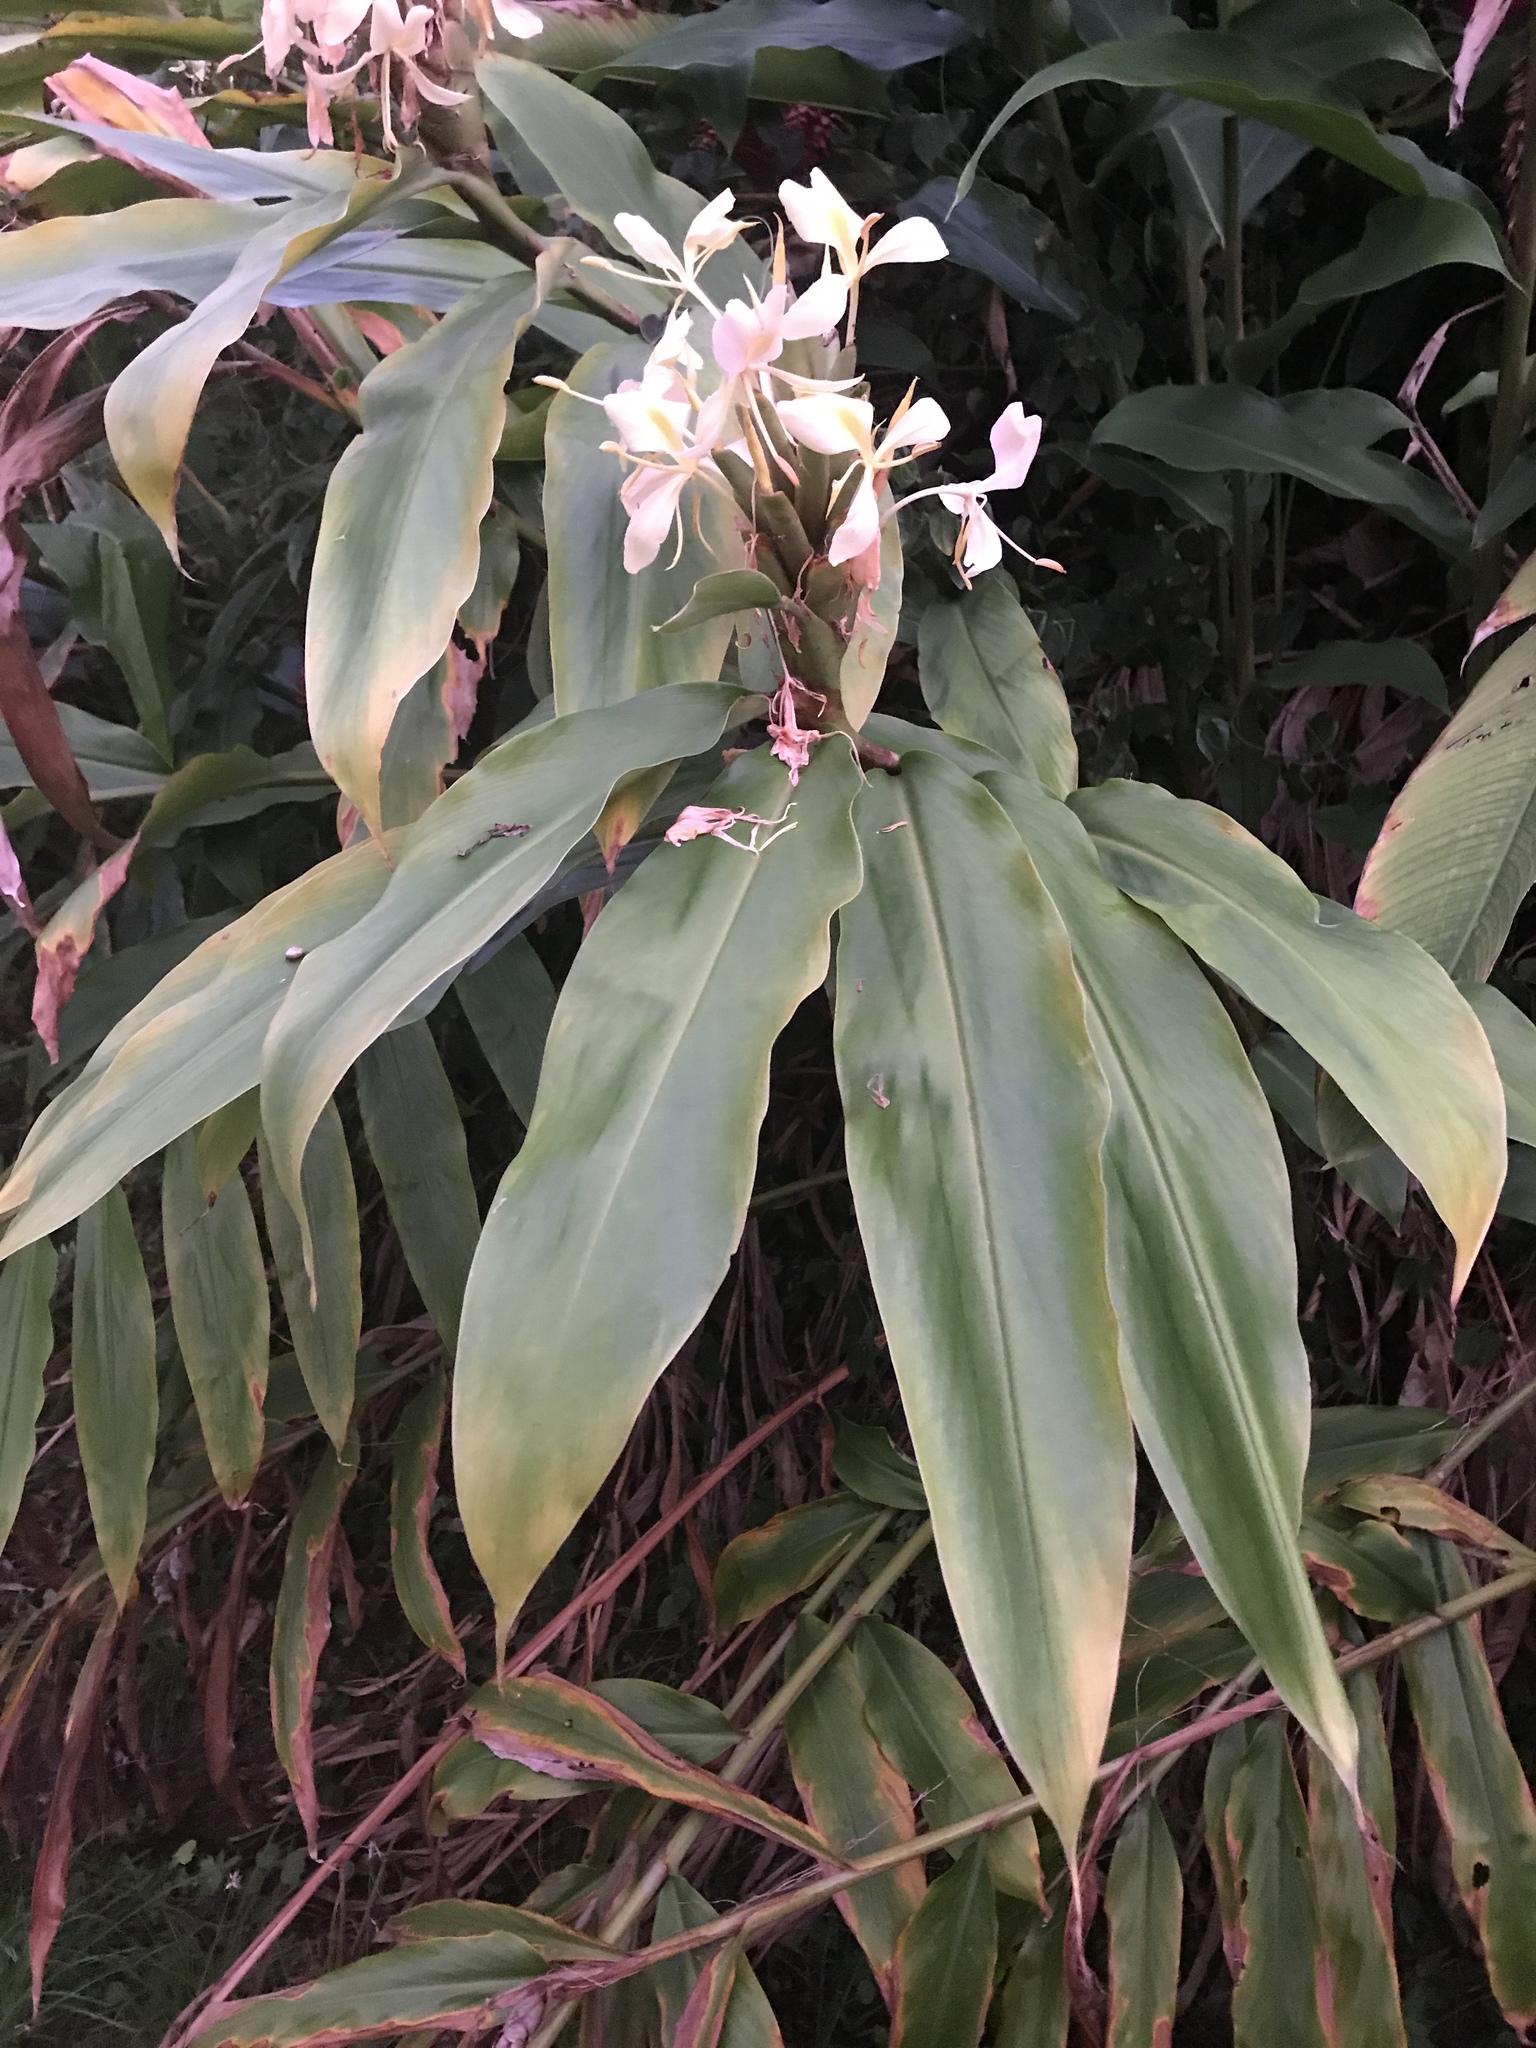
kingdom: Plantae
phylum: Tracheophyta
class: Liliopsida
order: Zingiberales
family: Zingiberaceae
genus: Hedychium
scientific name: Hedychium coronarium
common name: White garland-lily
